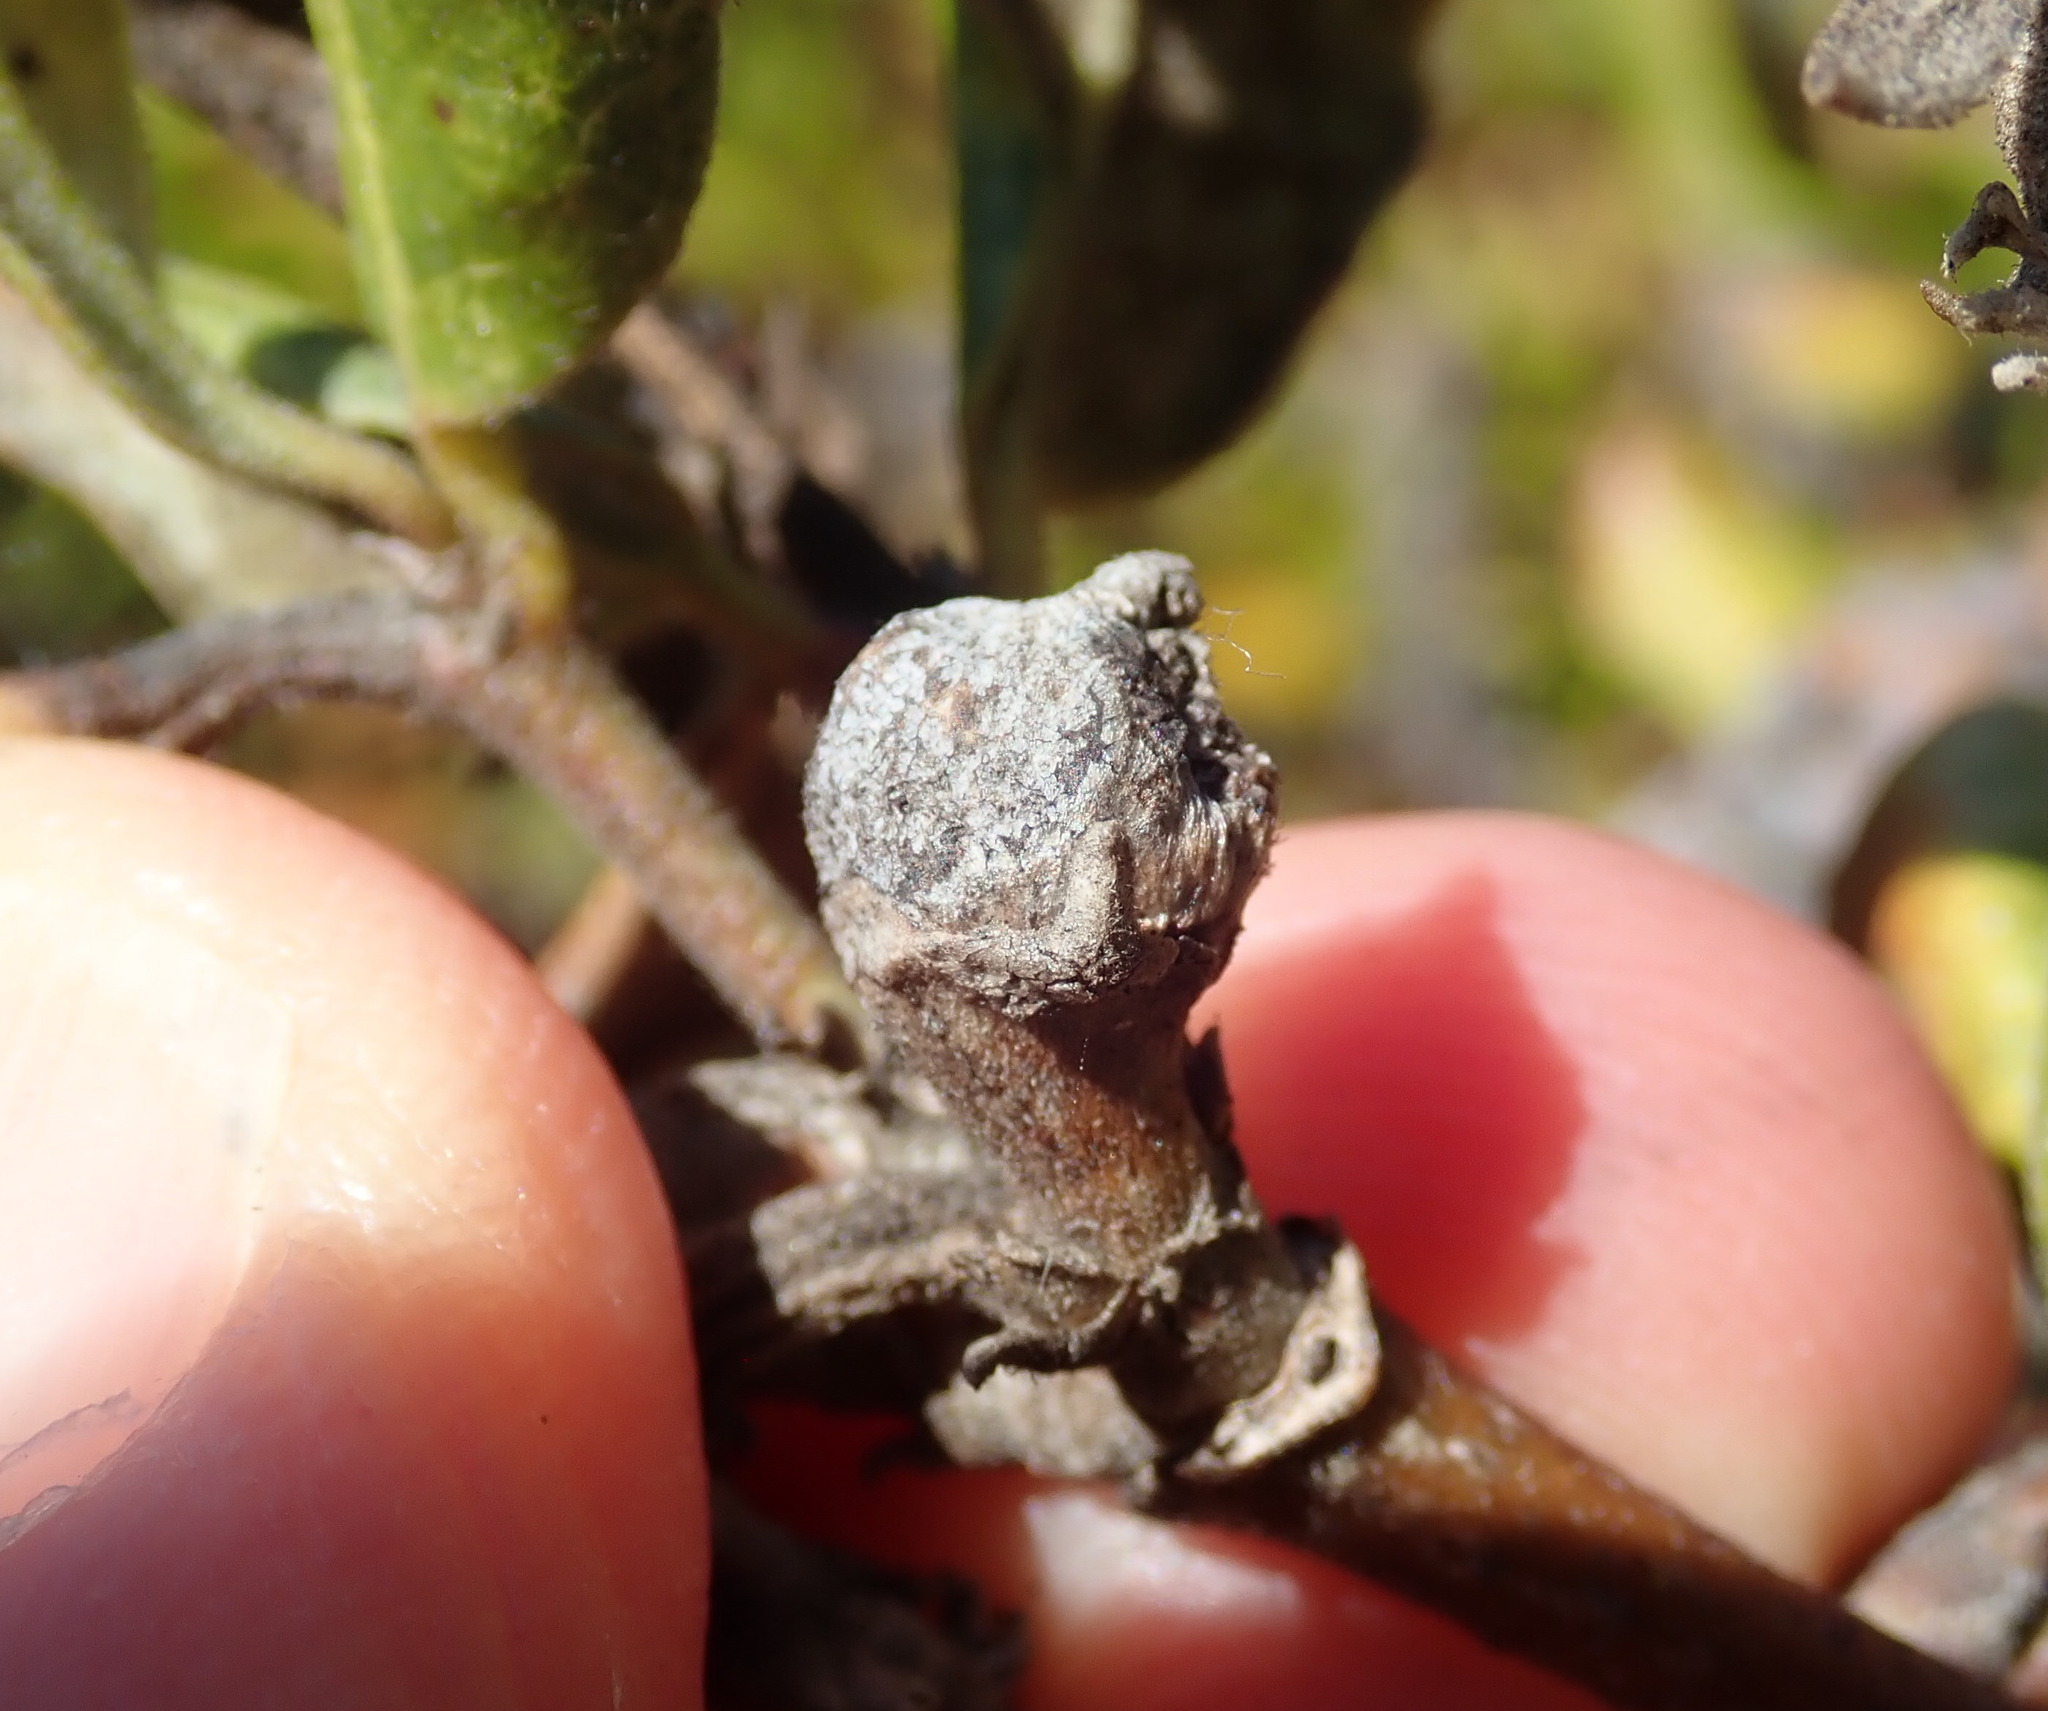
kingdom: Animalia
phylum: Arthropoda
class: Insecta
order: Diptera
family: Cecidomyiidae
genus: Asphondylia
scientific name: Asphondylia garryae
